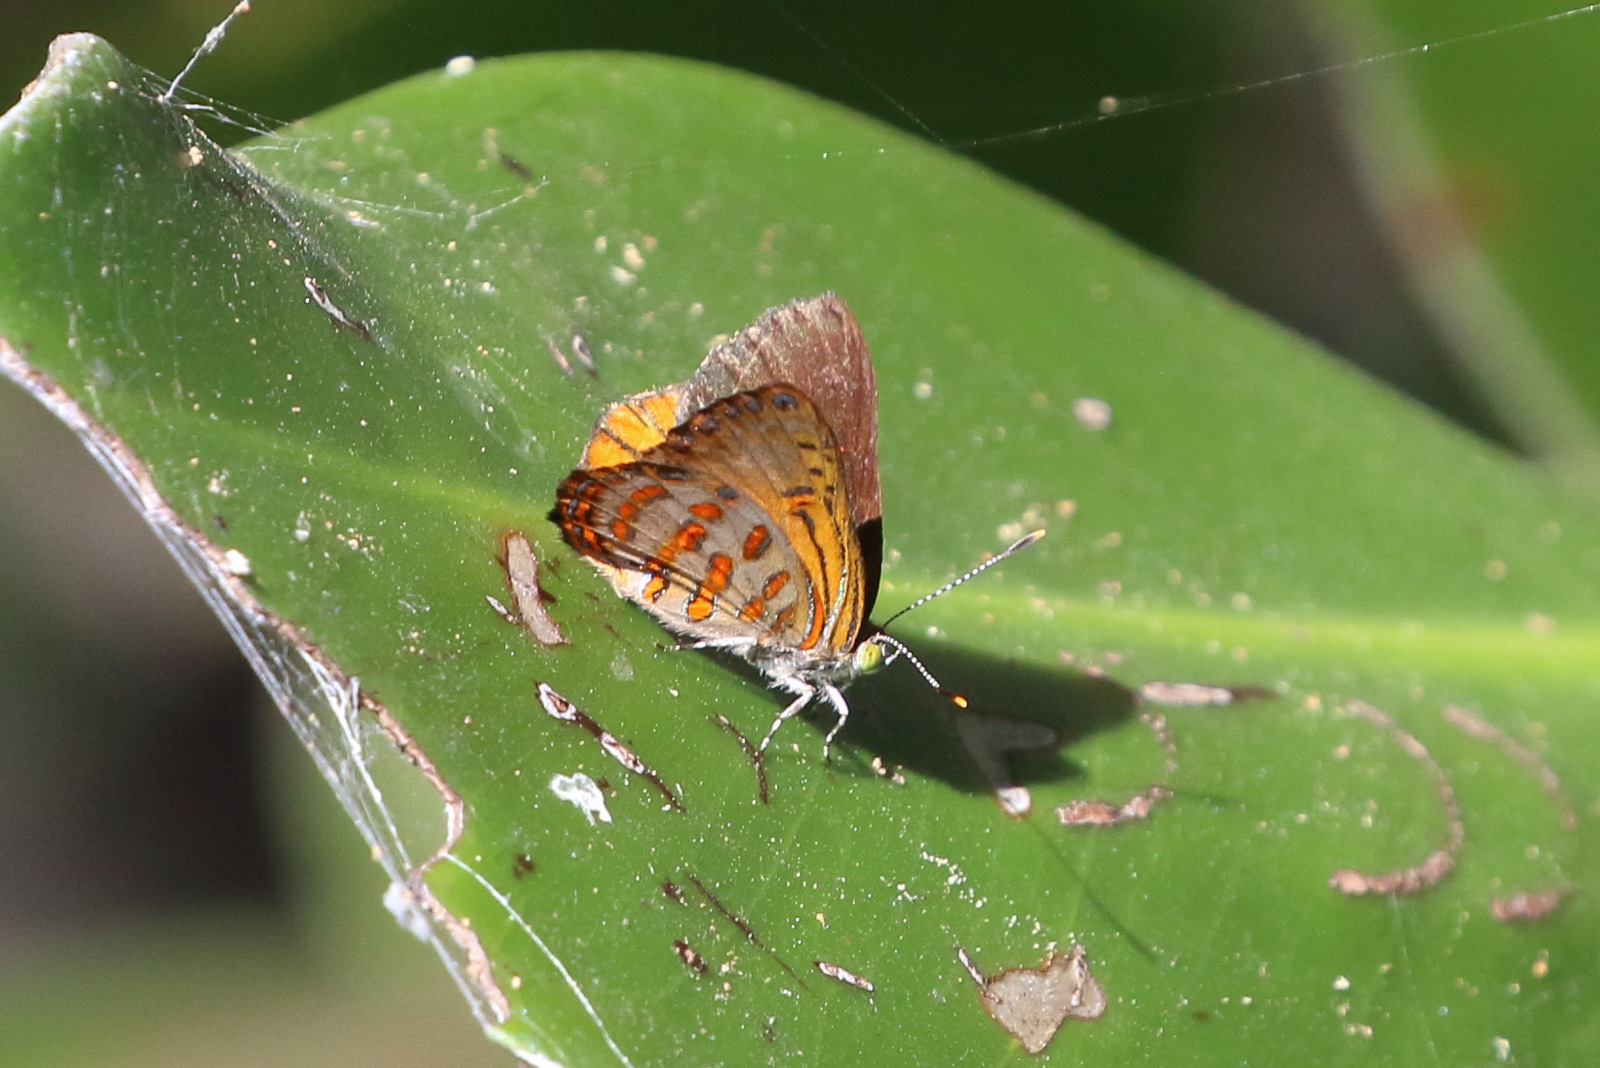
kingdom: Animalia
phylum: Arthropoda
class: Insecta
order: Lepidoptera
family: Lycaenidae
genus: Hypochrysops
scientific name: Hypochrysops apelles
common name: Copper jewel
